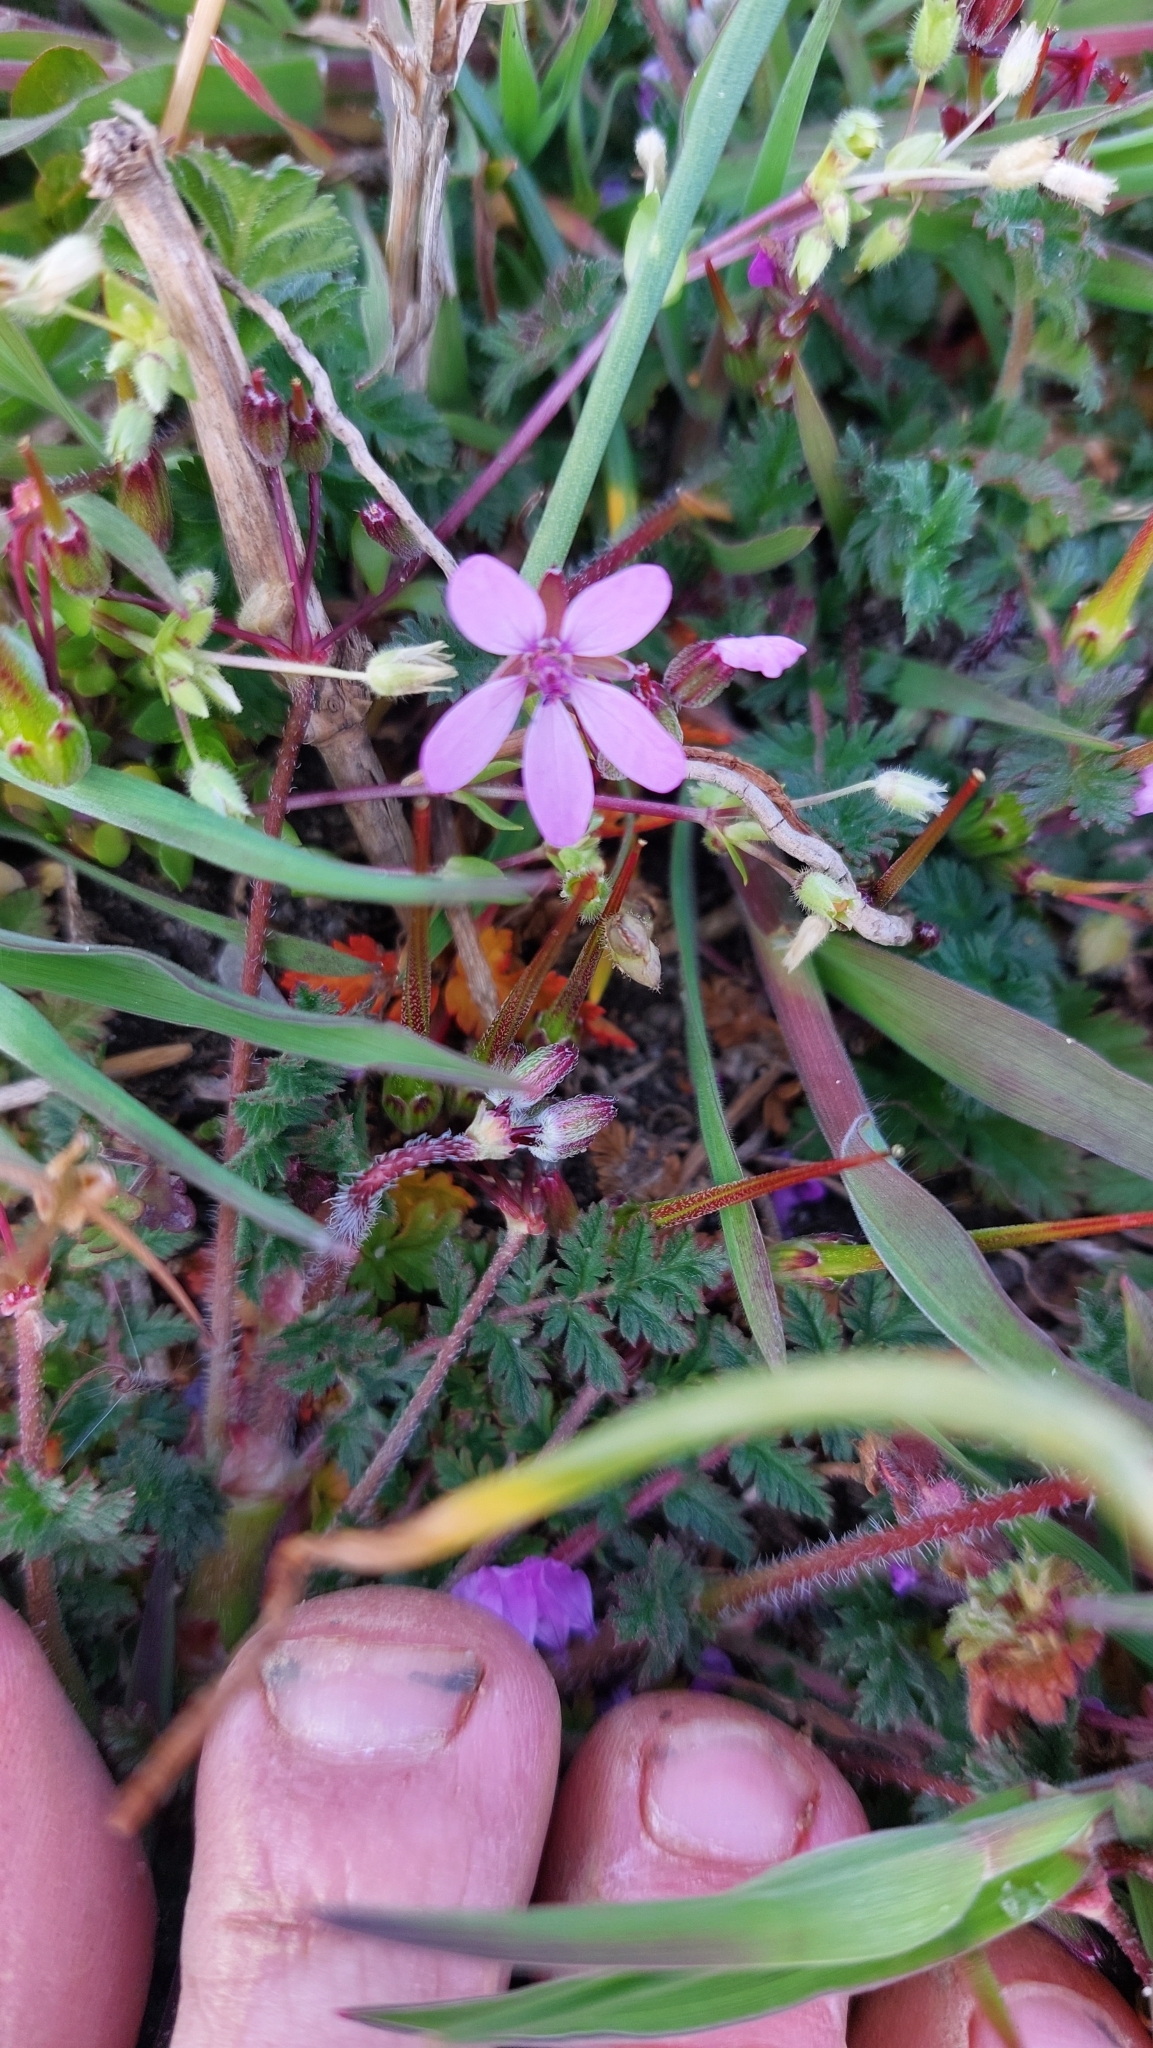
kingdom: Plantae
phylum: Tracheophyta
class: Magnoliopsida
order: Geraniales
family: Geraniaceae
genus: Erodium
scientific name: Erodium cicutarium
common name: Common stork's-bill
